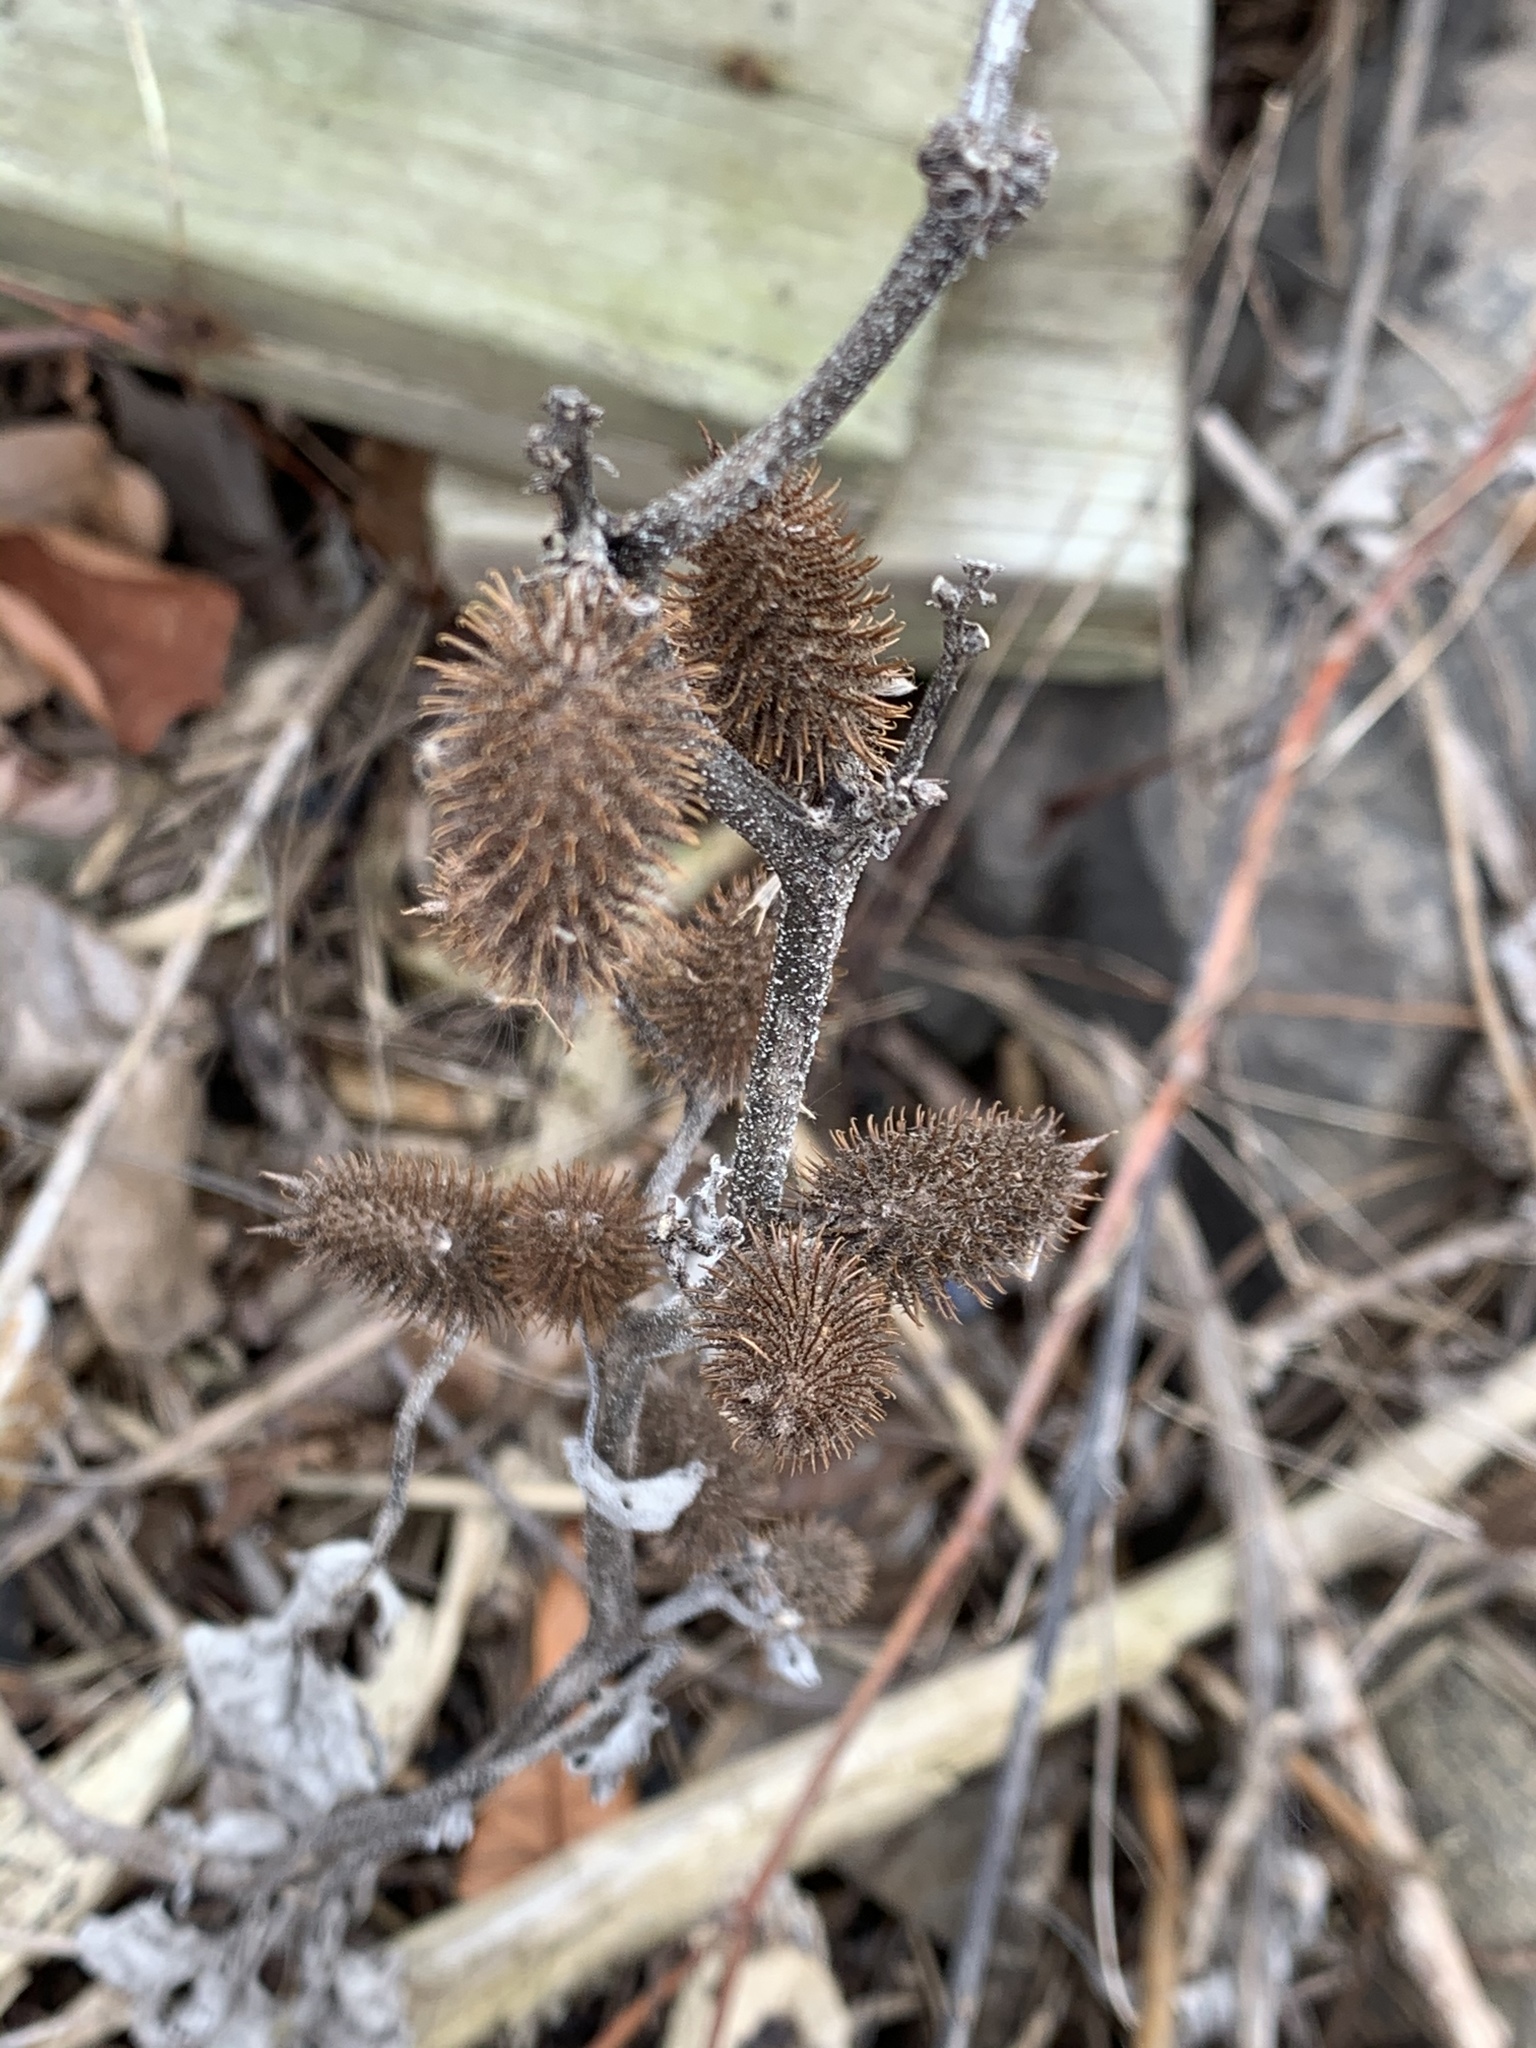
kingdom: Plantae
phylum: Tracheophyta
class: Magnoliopsida
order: Asterales
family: Asteraceae
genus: Xanthium
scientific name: Xanthium strumarium
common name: Rough cocklebur
